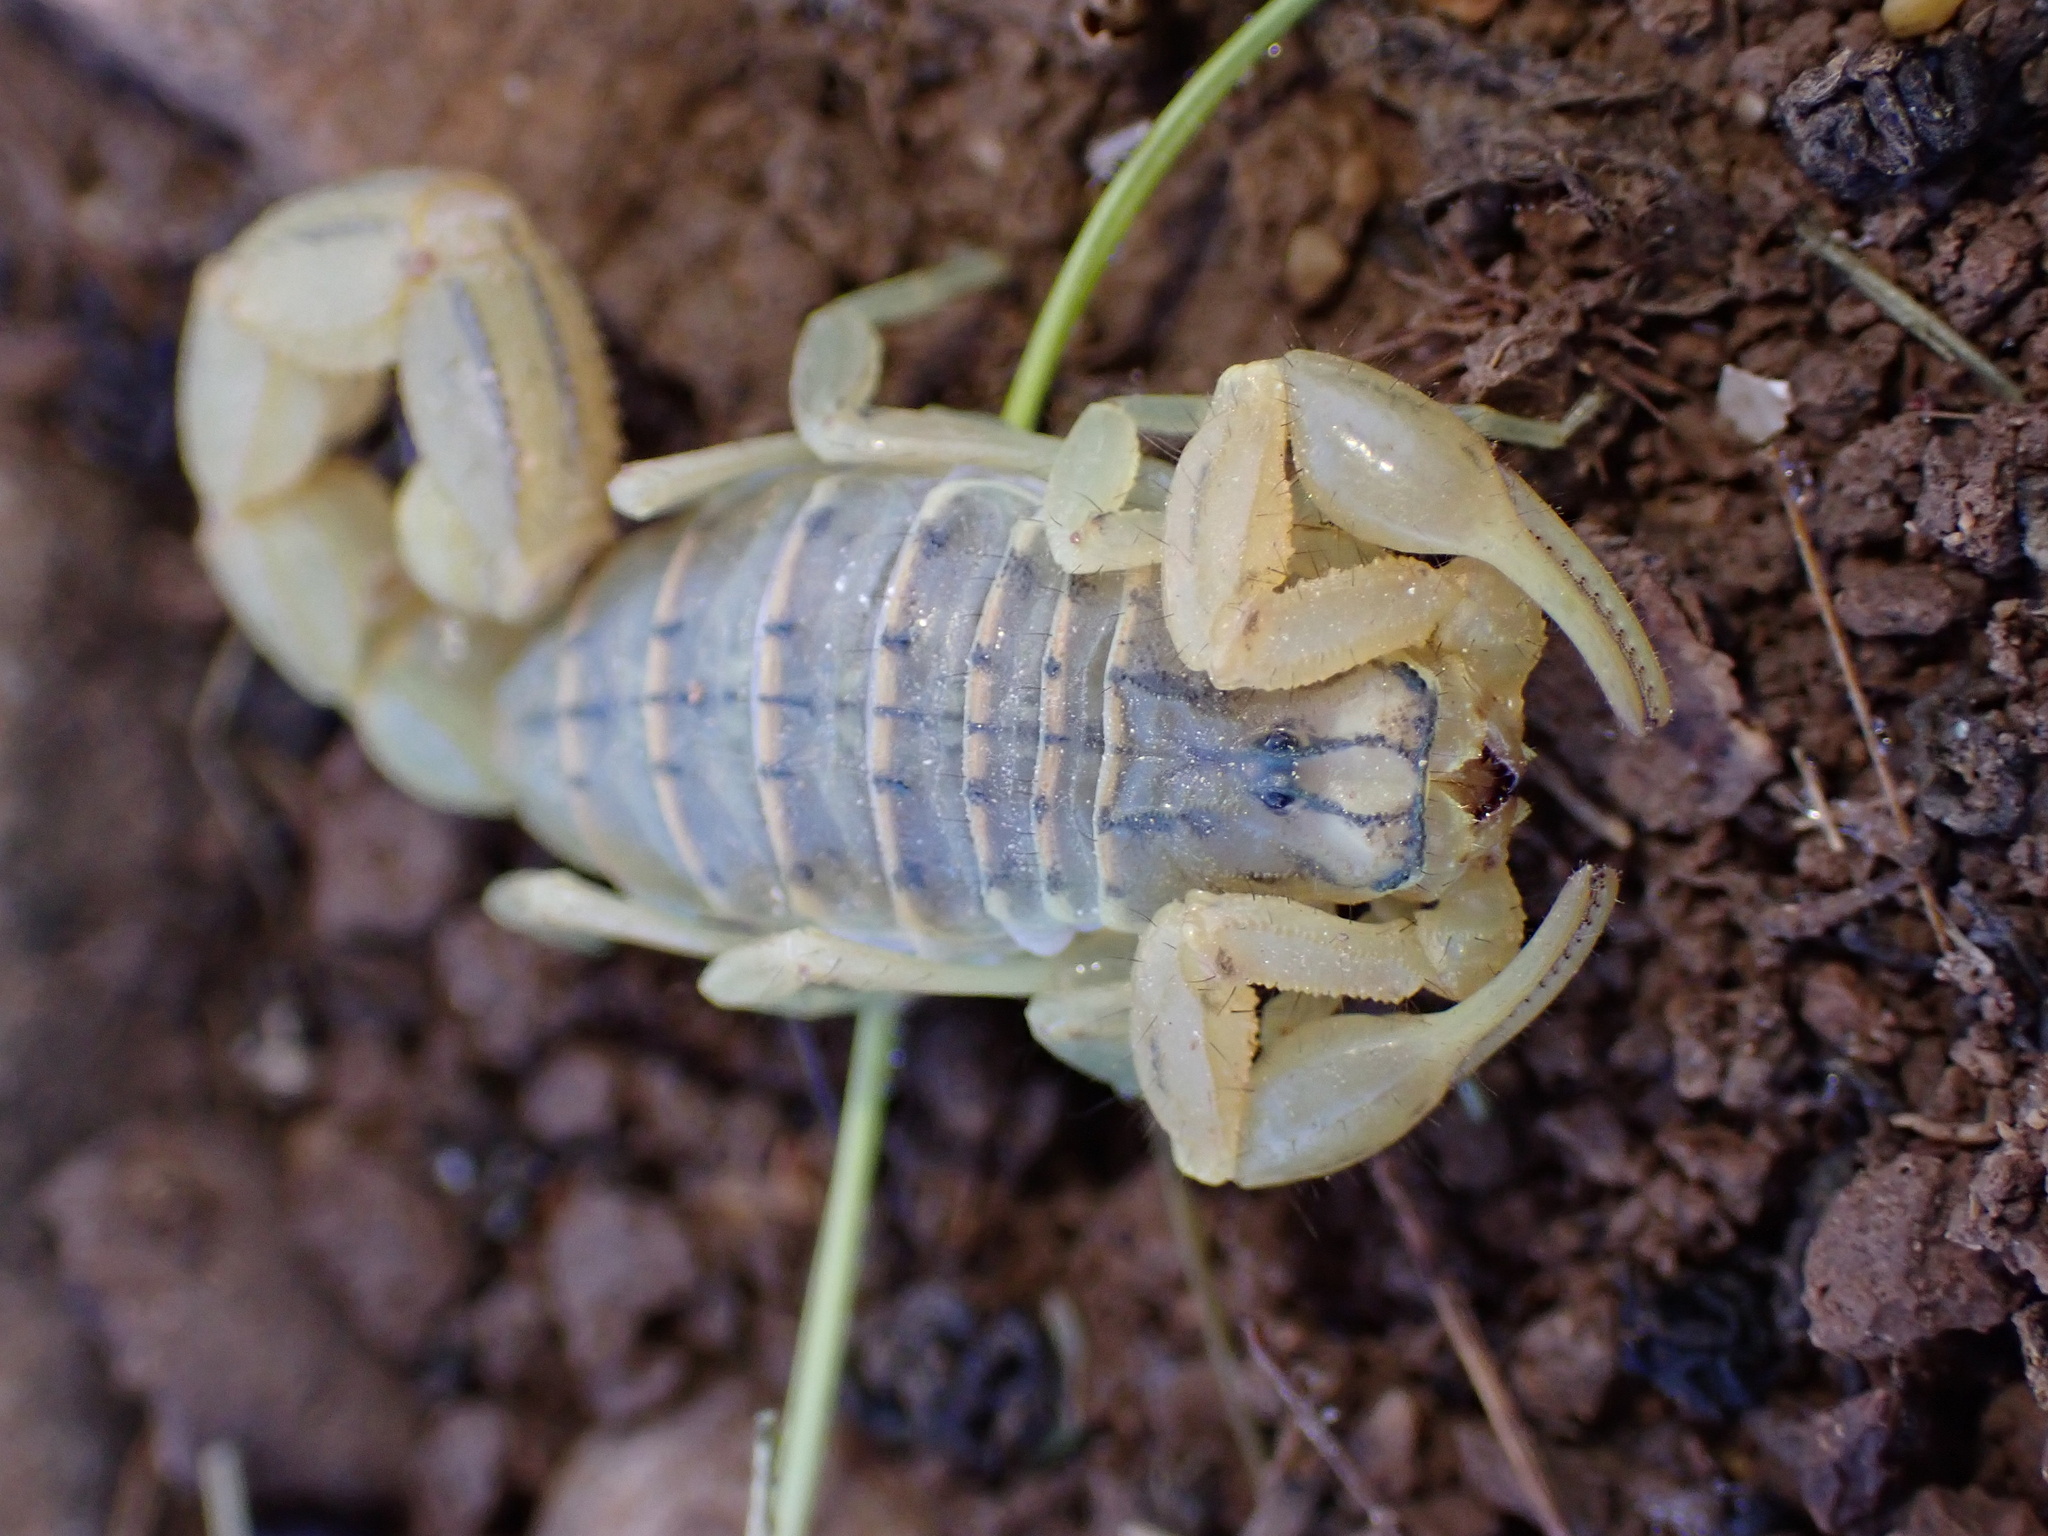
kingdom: Animalia
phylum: Arthropoda
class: Arachnida
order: Scorpiones
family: Buthidae
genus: Mesobuthus
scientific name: Mesobuthus phillipsi
